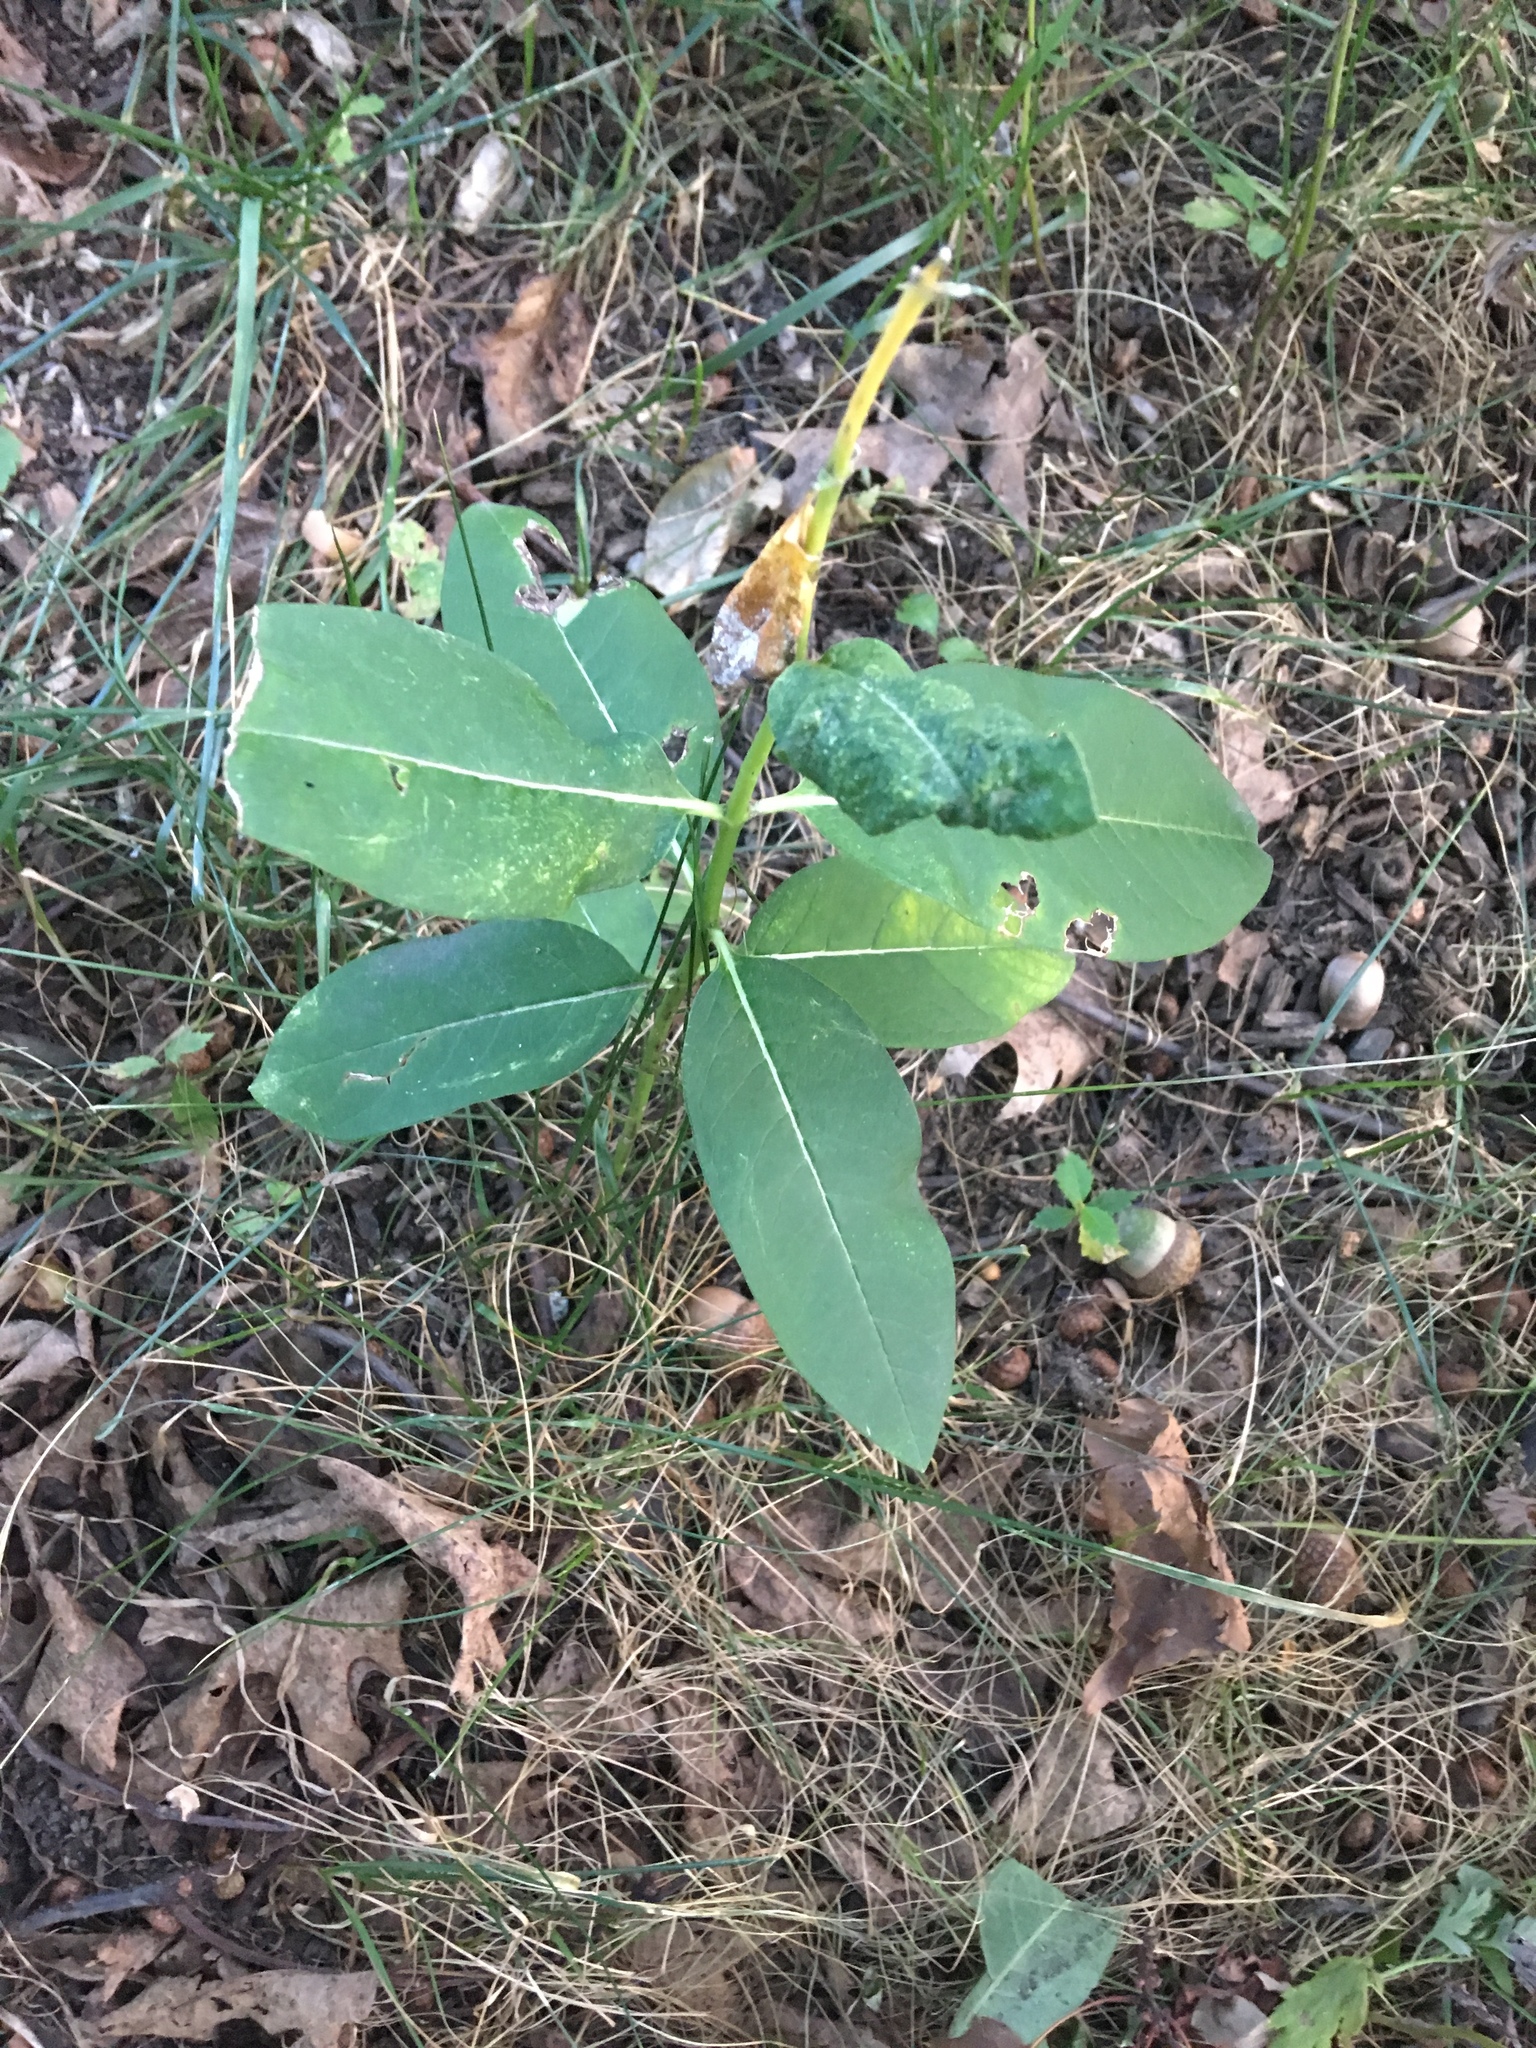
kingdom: Plantae
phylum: Tracheophyta
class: Magnoliopsida
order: Gentianales
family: Apocynaceae
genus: Asclepias
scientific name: Asclepias syriaca
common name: Common milkweed
